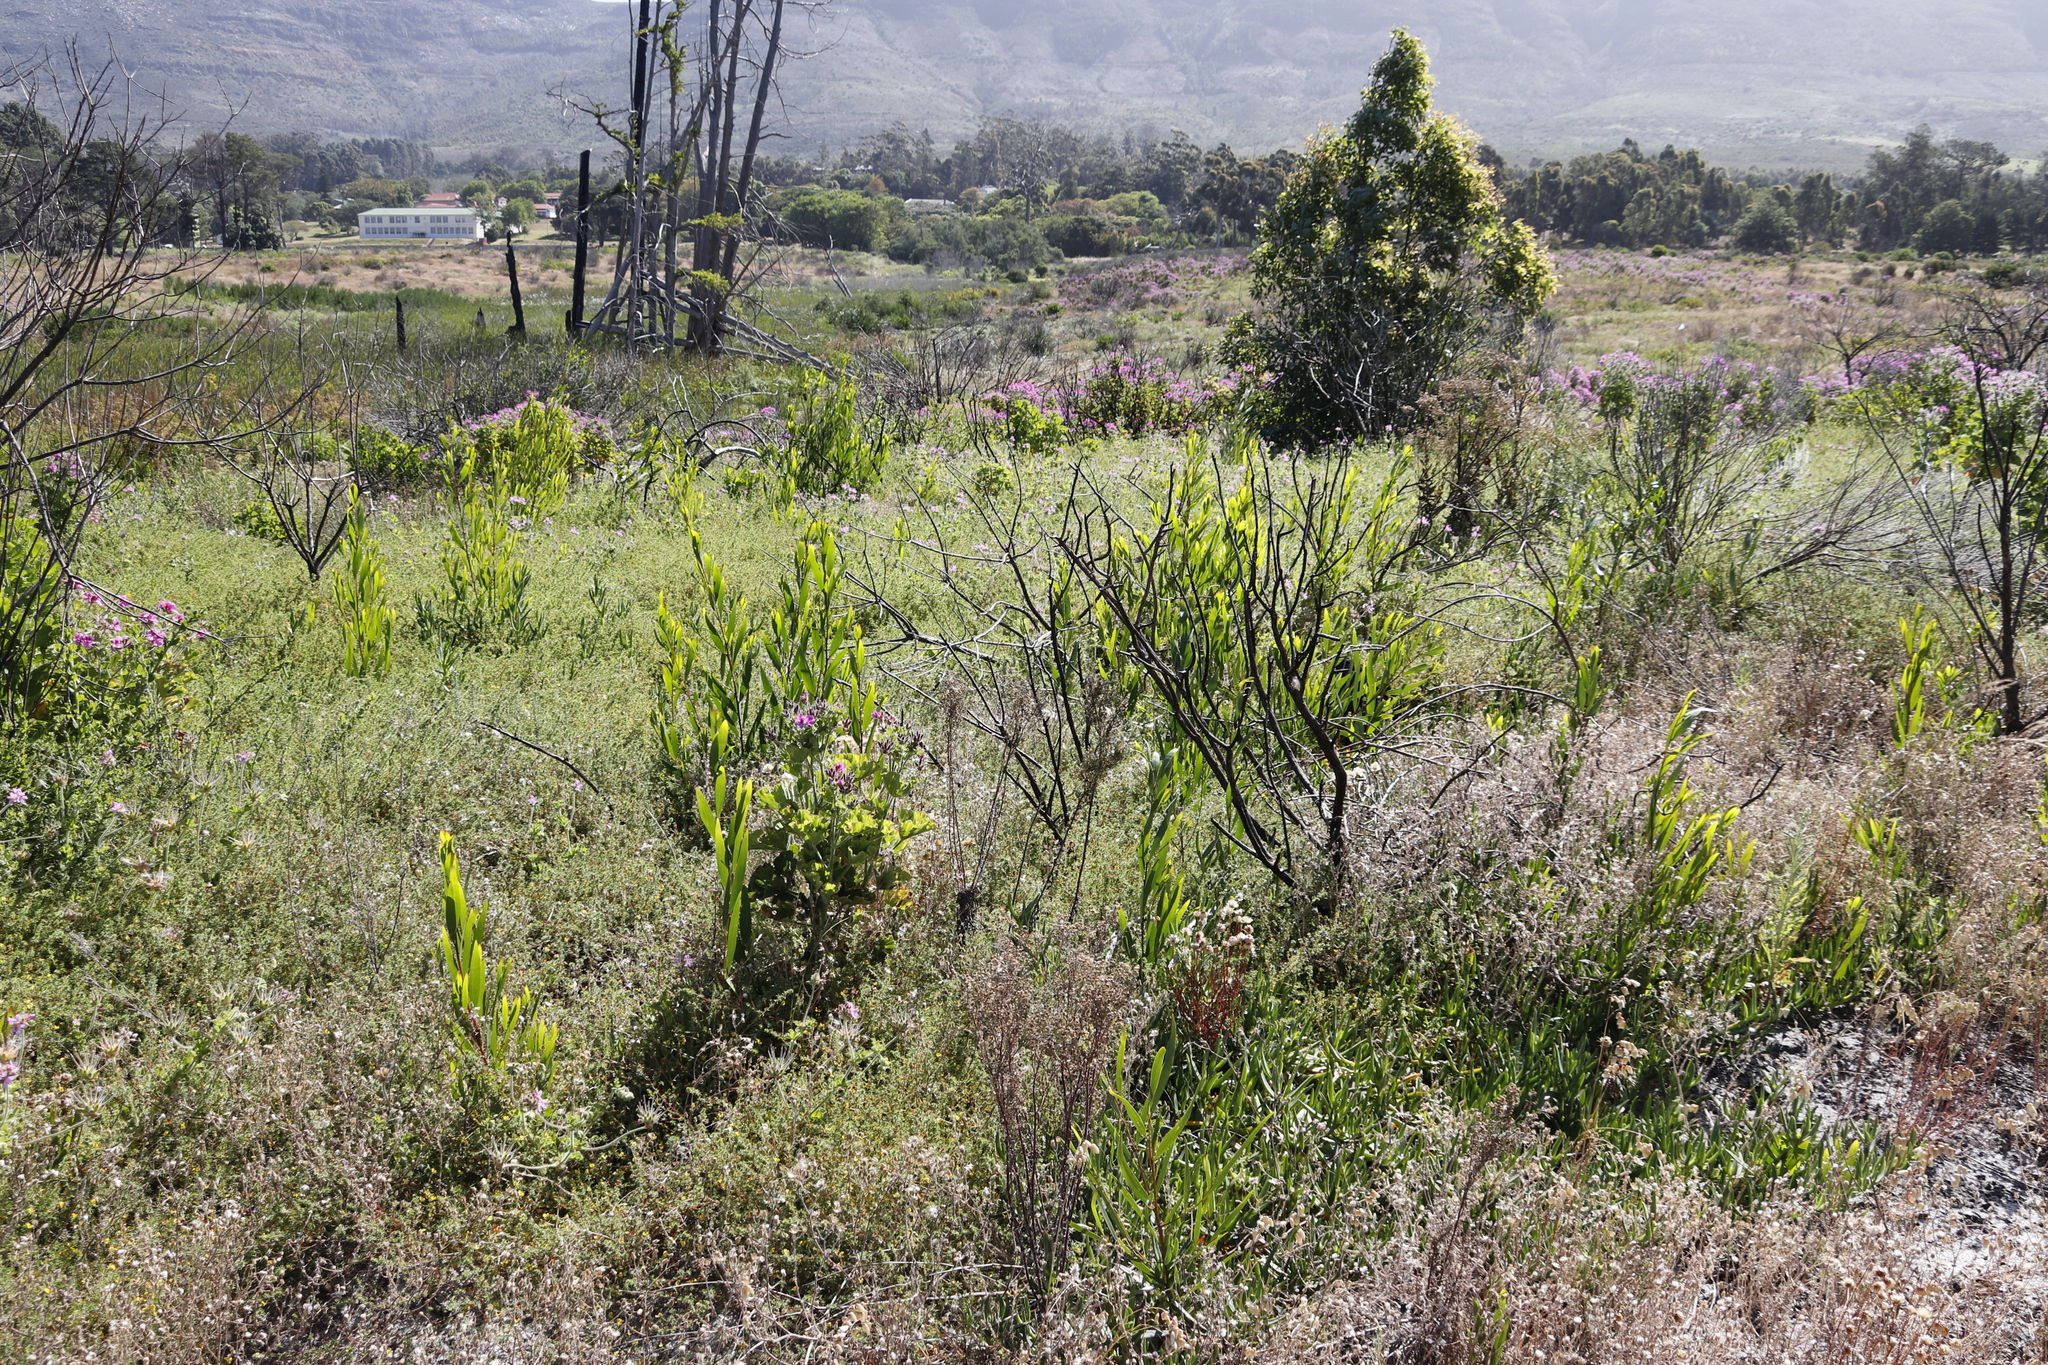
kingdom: Plantae
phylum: Tracheophyta
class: Magnoliopsida
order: Fabales
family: Fabaceae
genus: Acacia
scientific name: Acacia longifolia
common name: Sydney golden wattle
